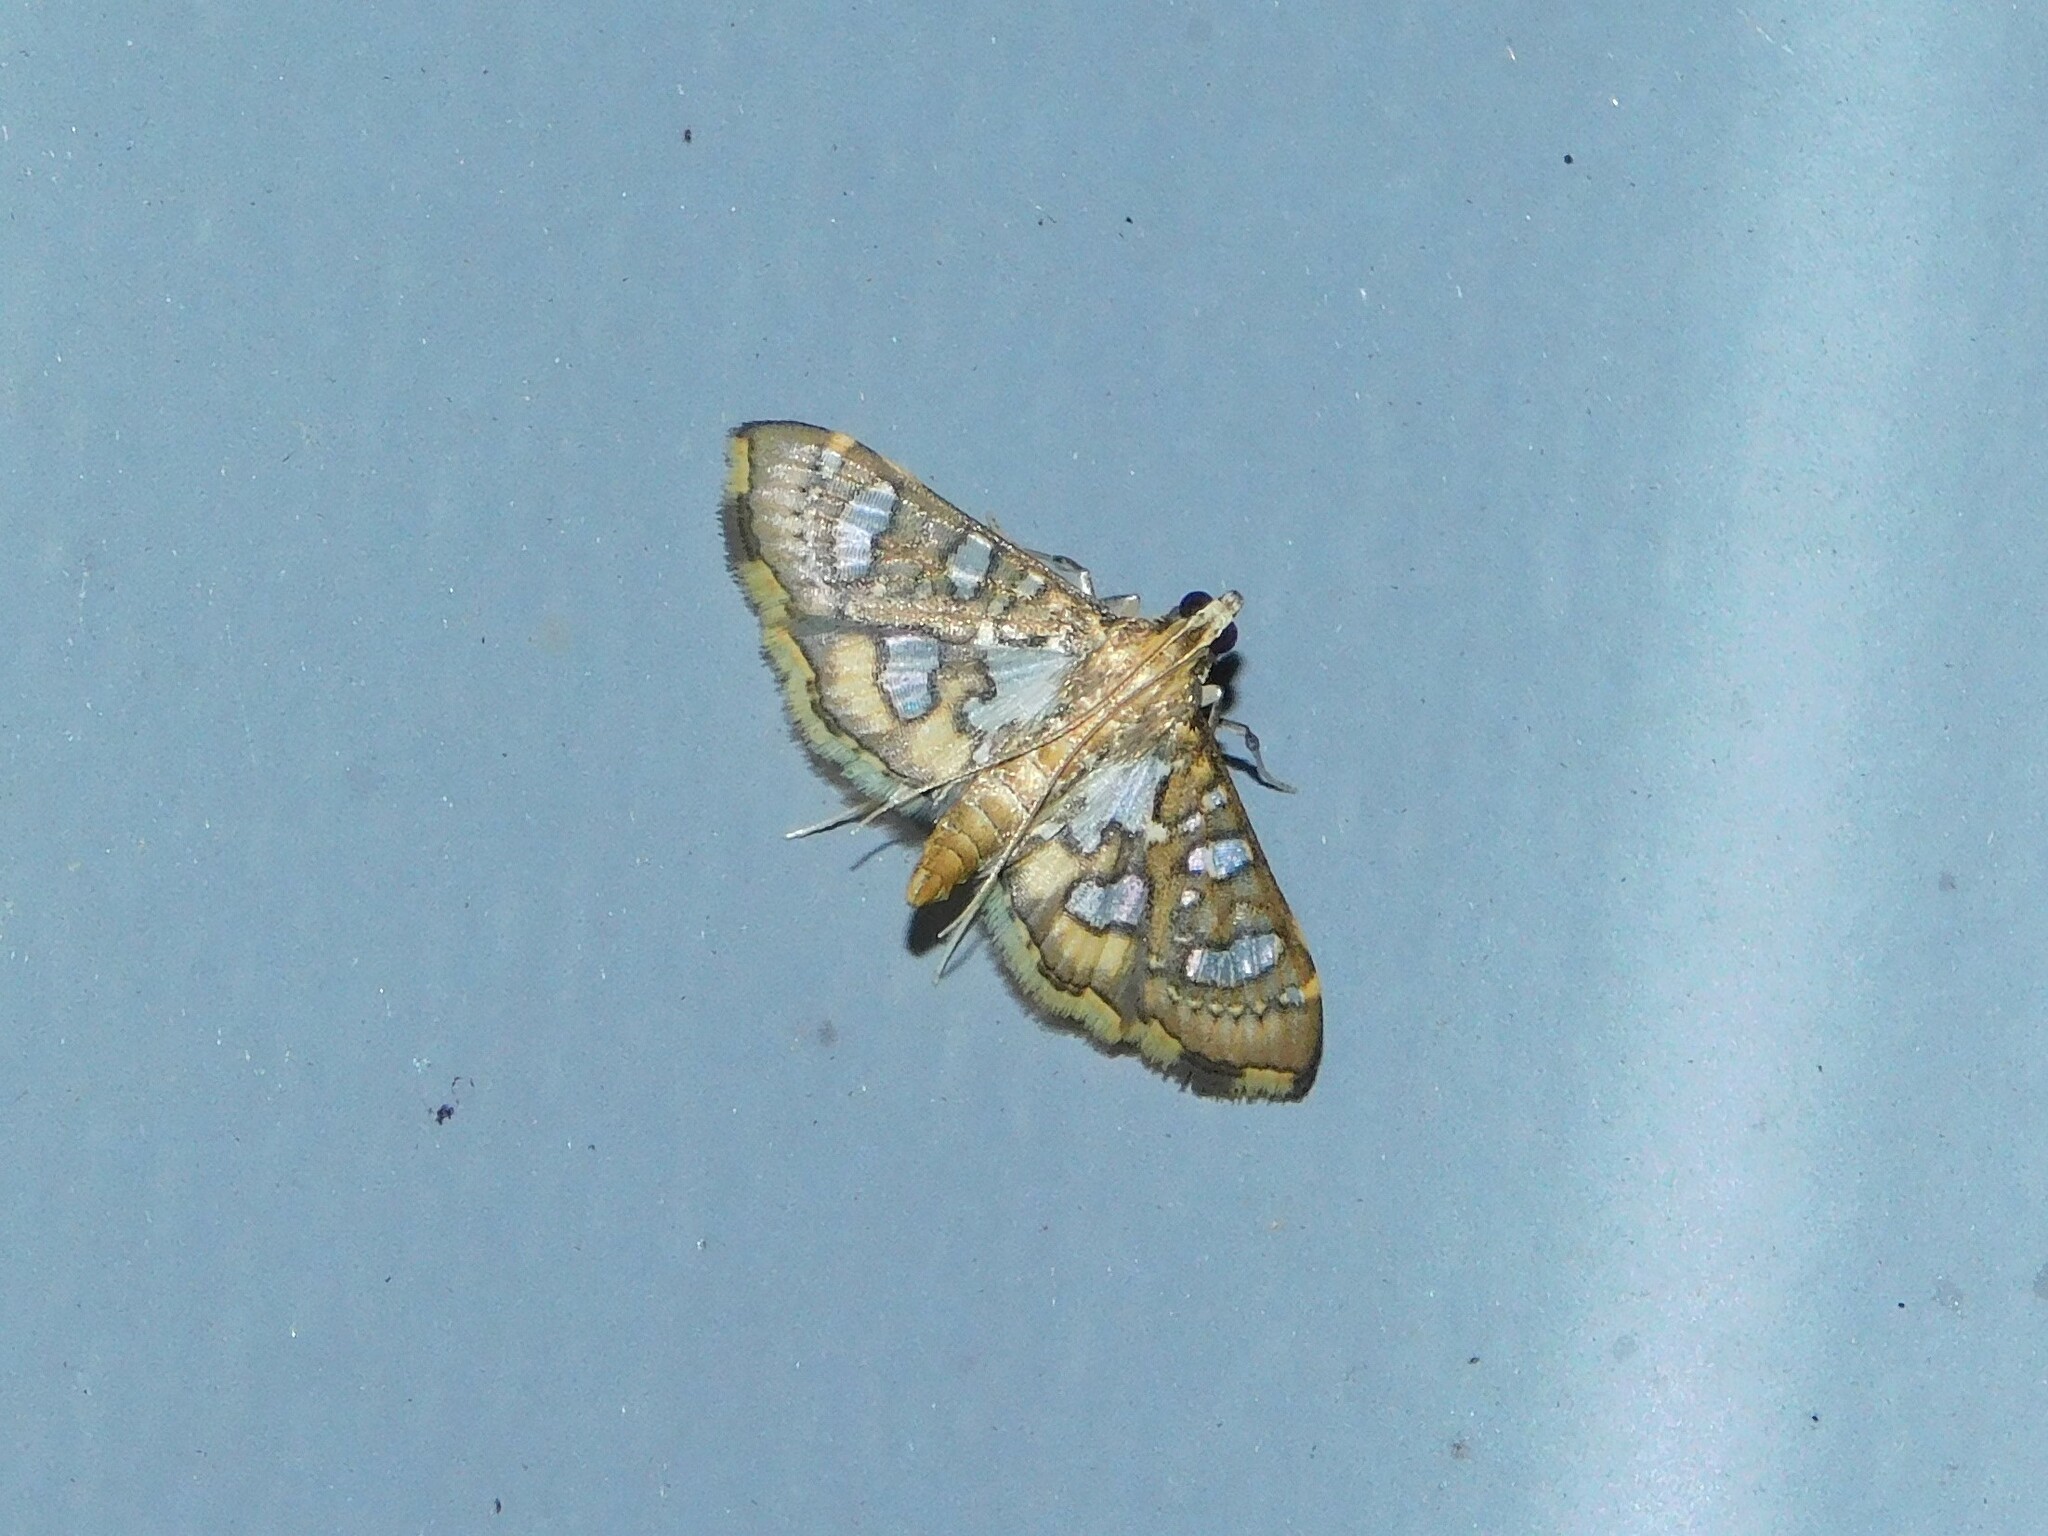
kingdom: Animalia
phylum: Arthropoda
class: Insecta
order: Lepidoptera
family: Crambidae
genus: Nausinoe
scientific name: Nausinoe quadrinalis
